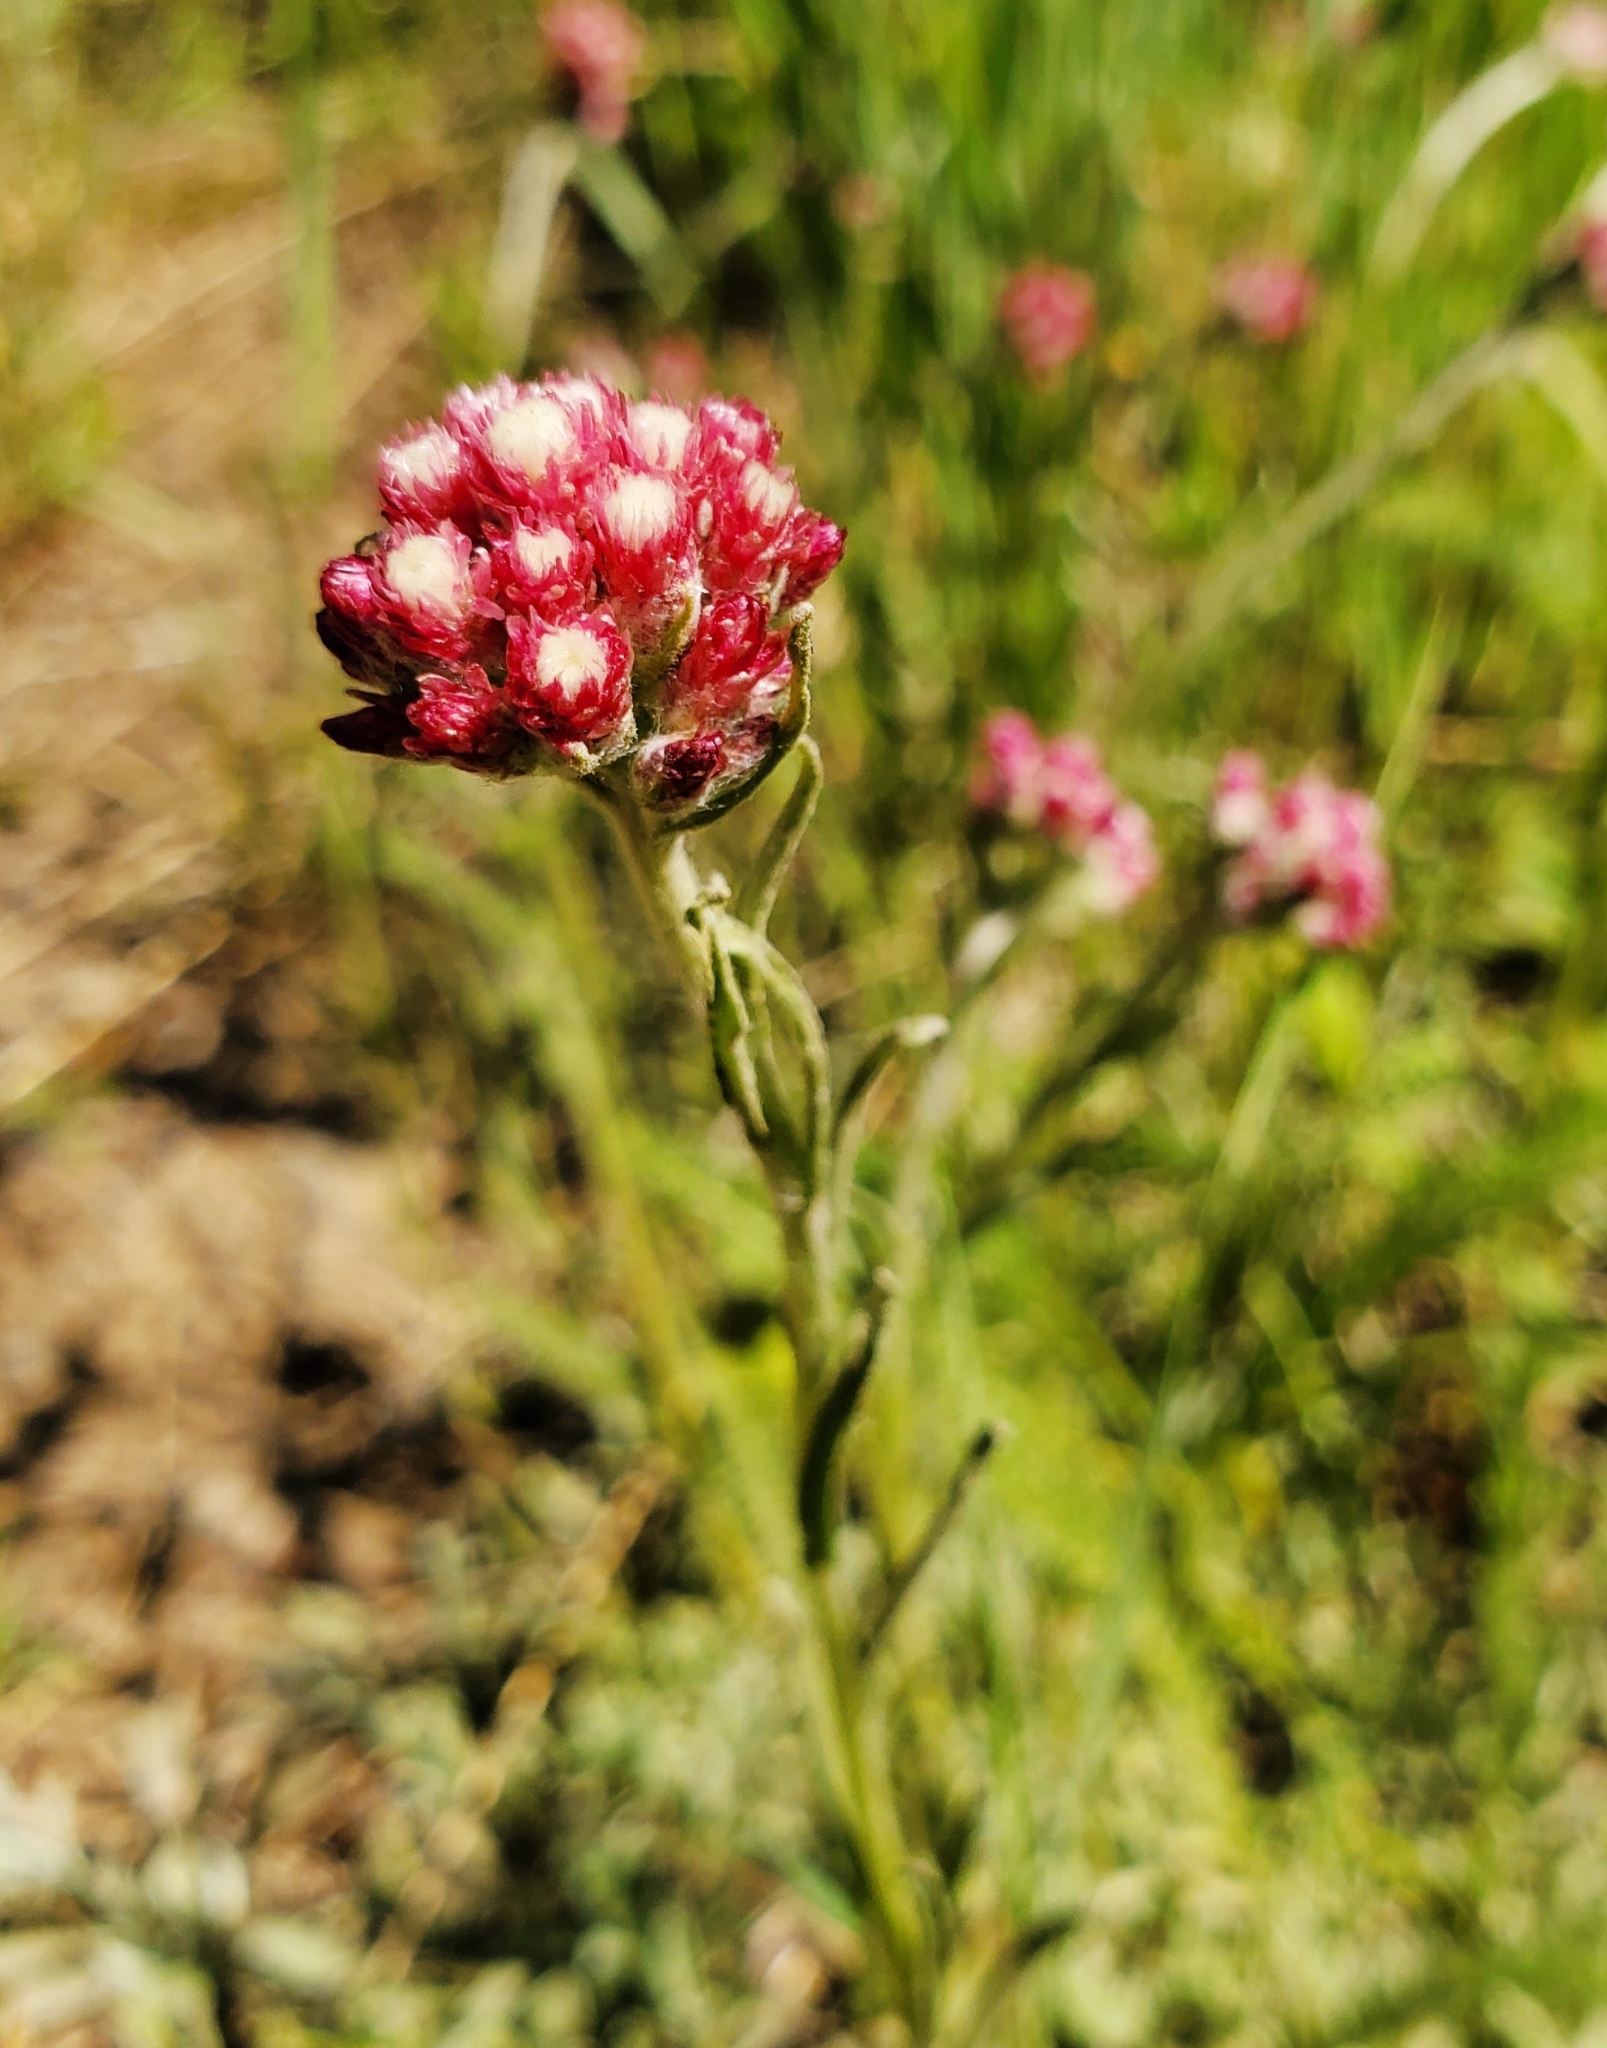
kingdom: Plantae
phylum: Tracheophyta
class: Magnoliopsida
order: Asterales
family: Asteraceae
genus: Antennaria
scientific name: Antennaria rosea
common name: Rosy pussytoes
